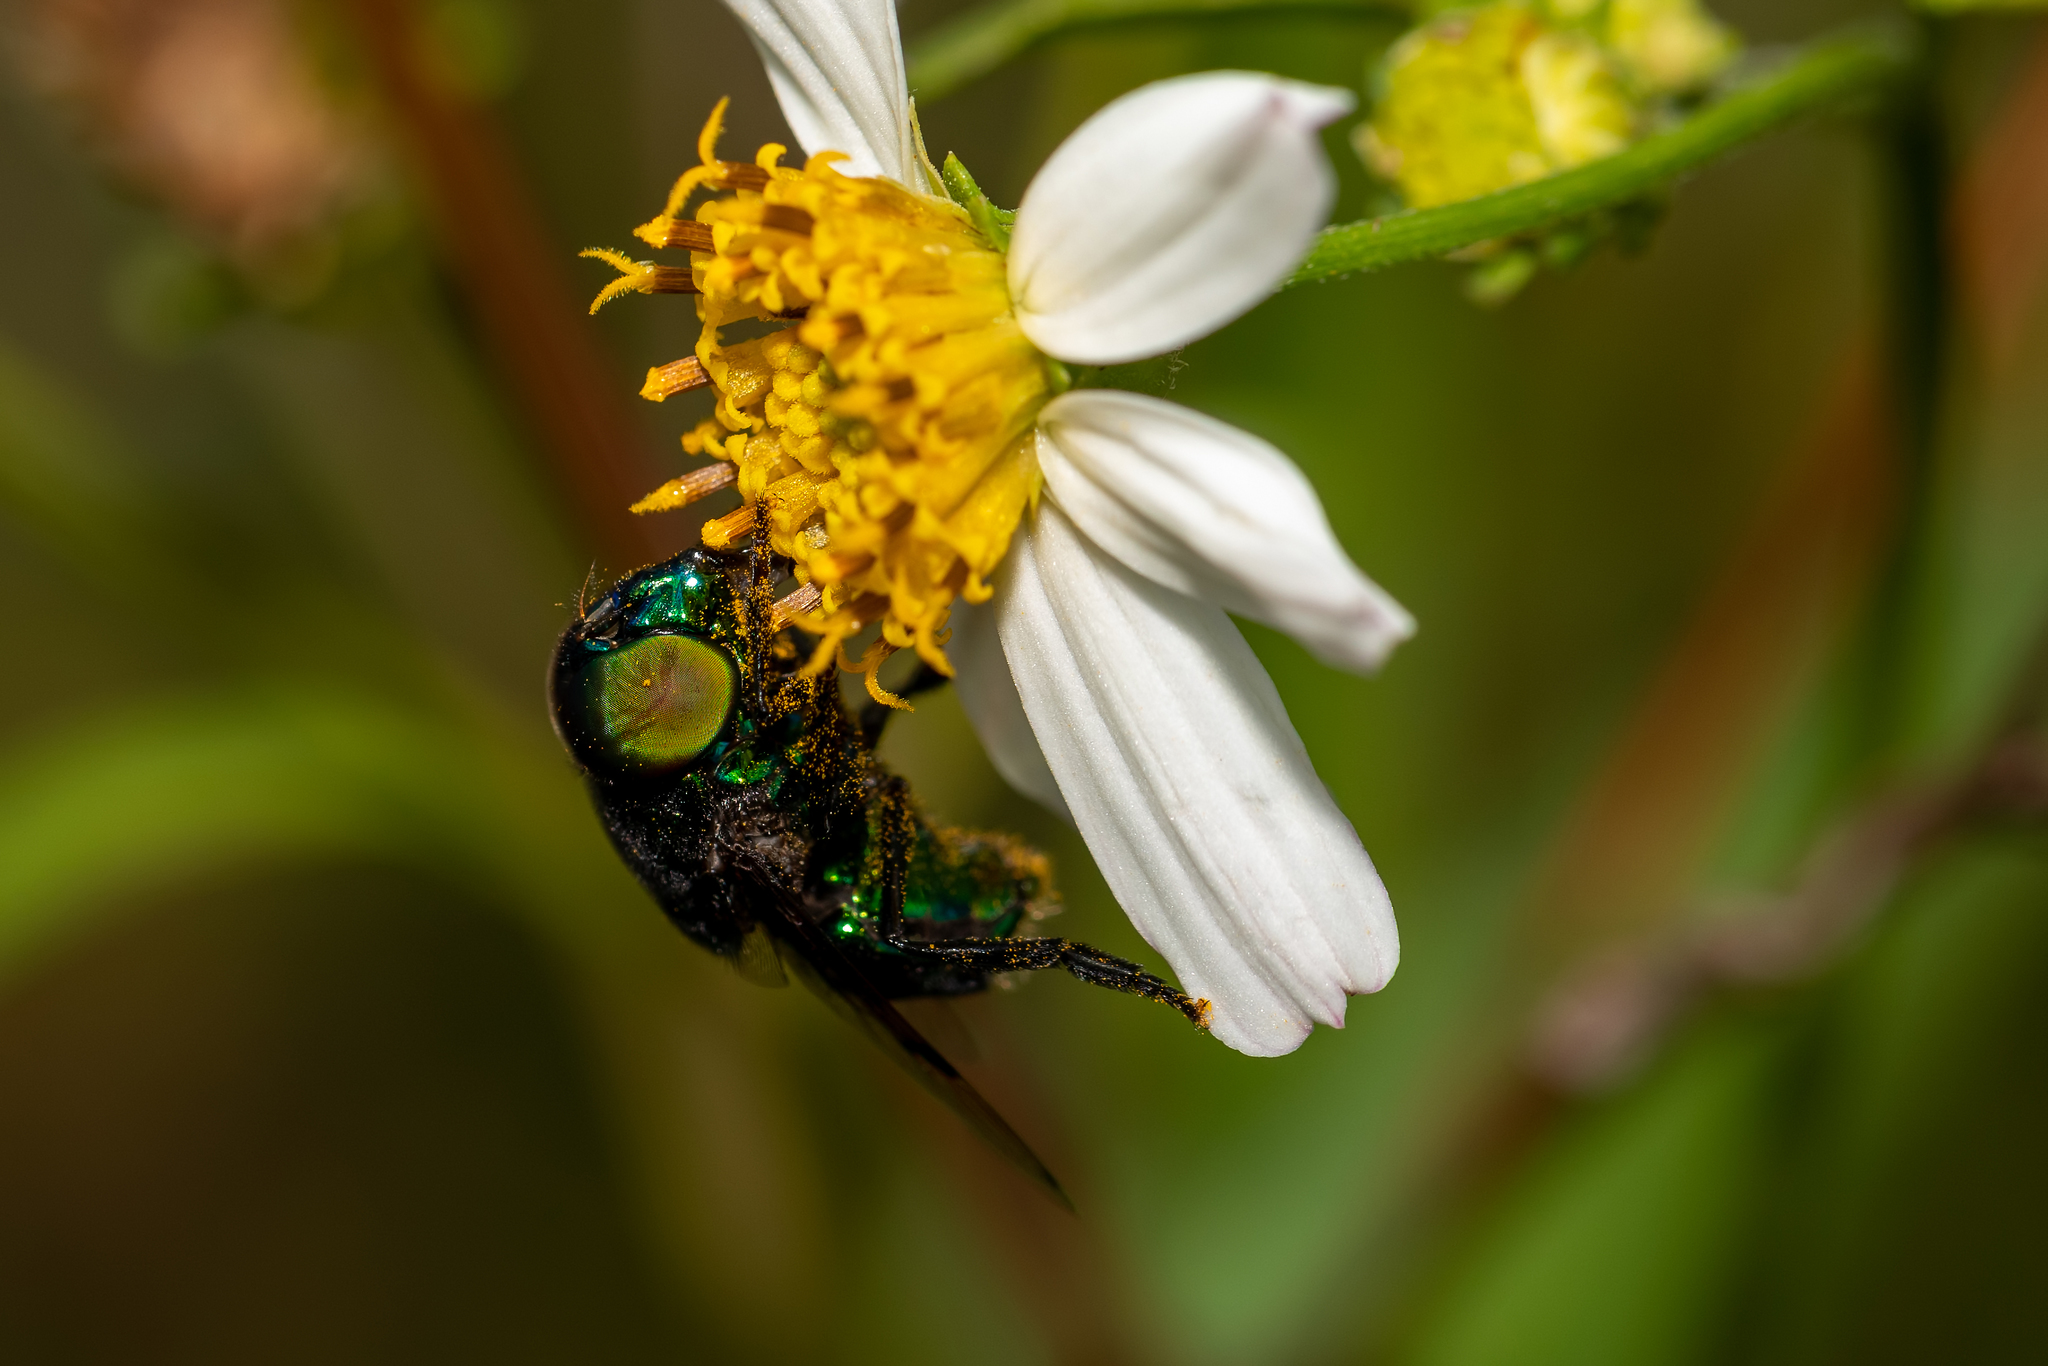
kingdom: Animalia
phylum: Arthropoda
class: Insecta
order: Diptera
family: Syrphidae
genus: Ornidia
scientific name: Ornidia obesa
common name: Syrphid fly
